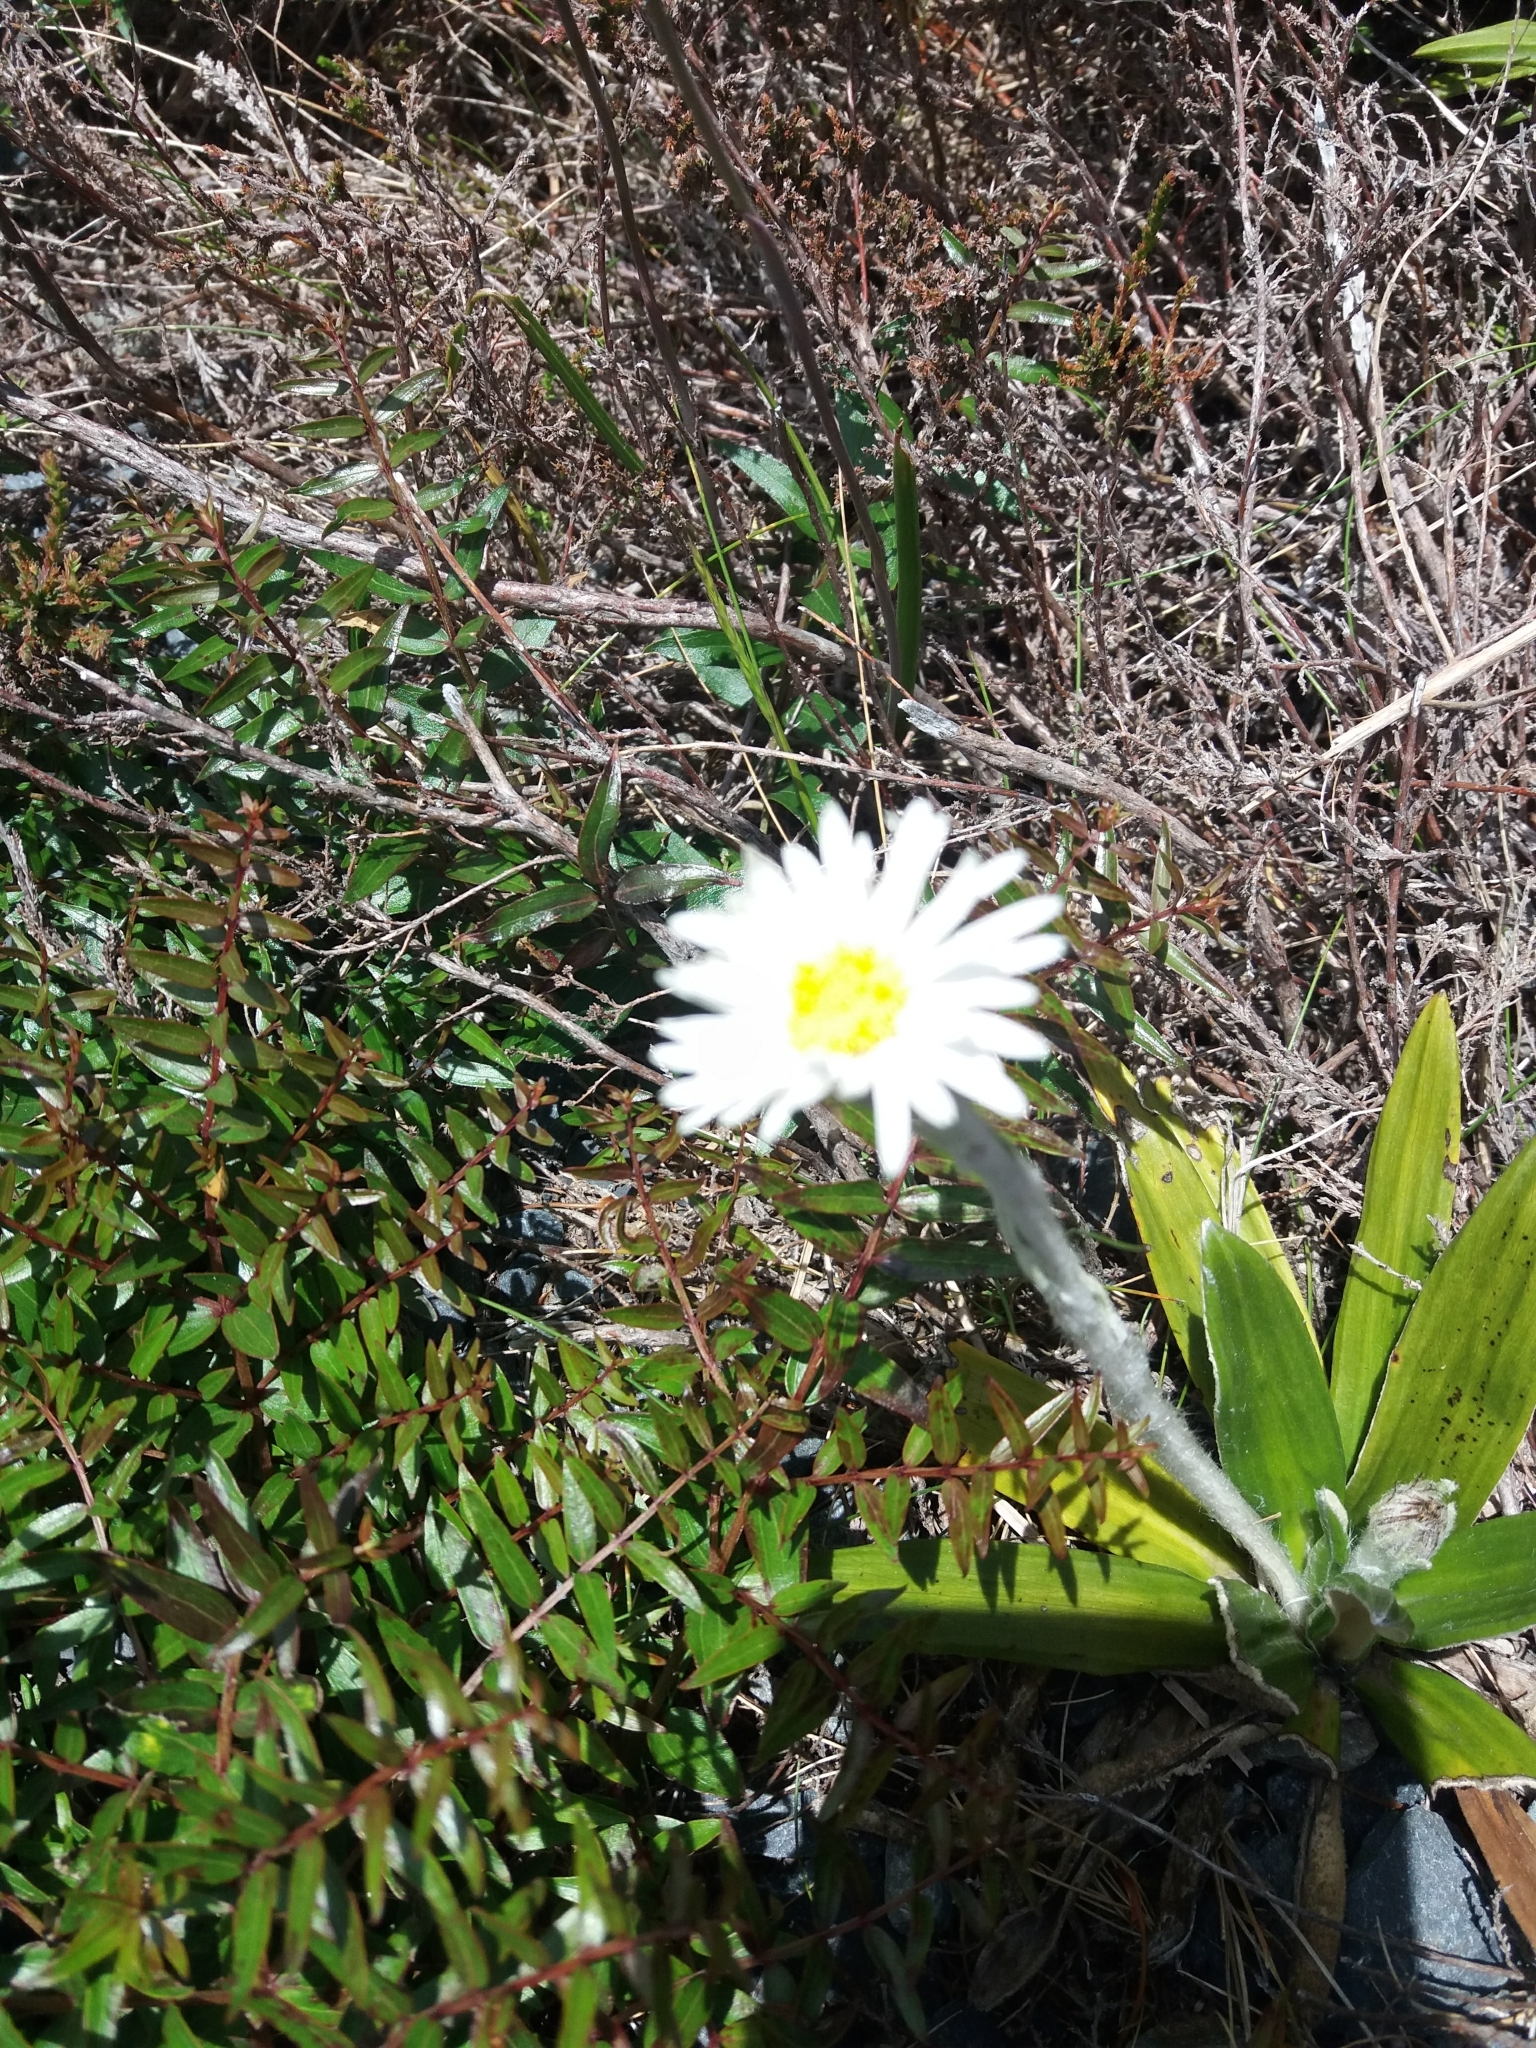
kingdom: Plantae
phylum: Tracheophyta
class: Magnoliopsida
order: Asterales
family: Asteraceae
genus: Celmisia
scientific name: Celmisia spectabilis
